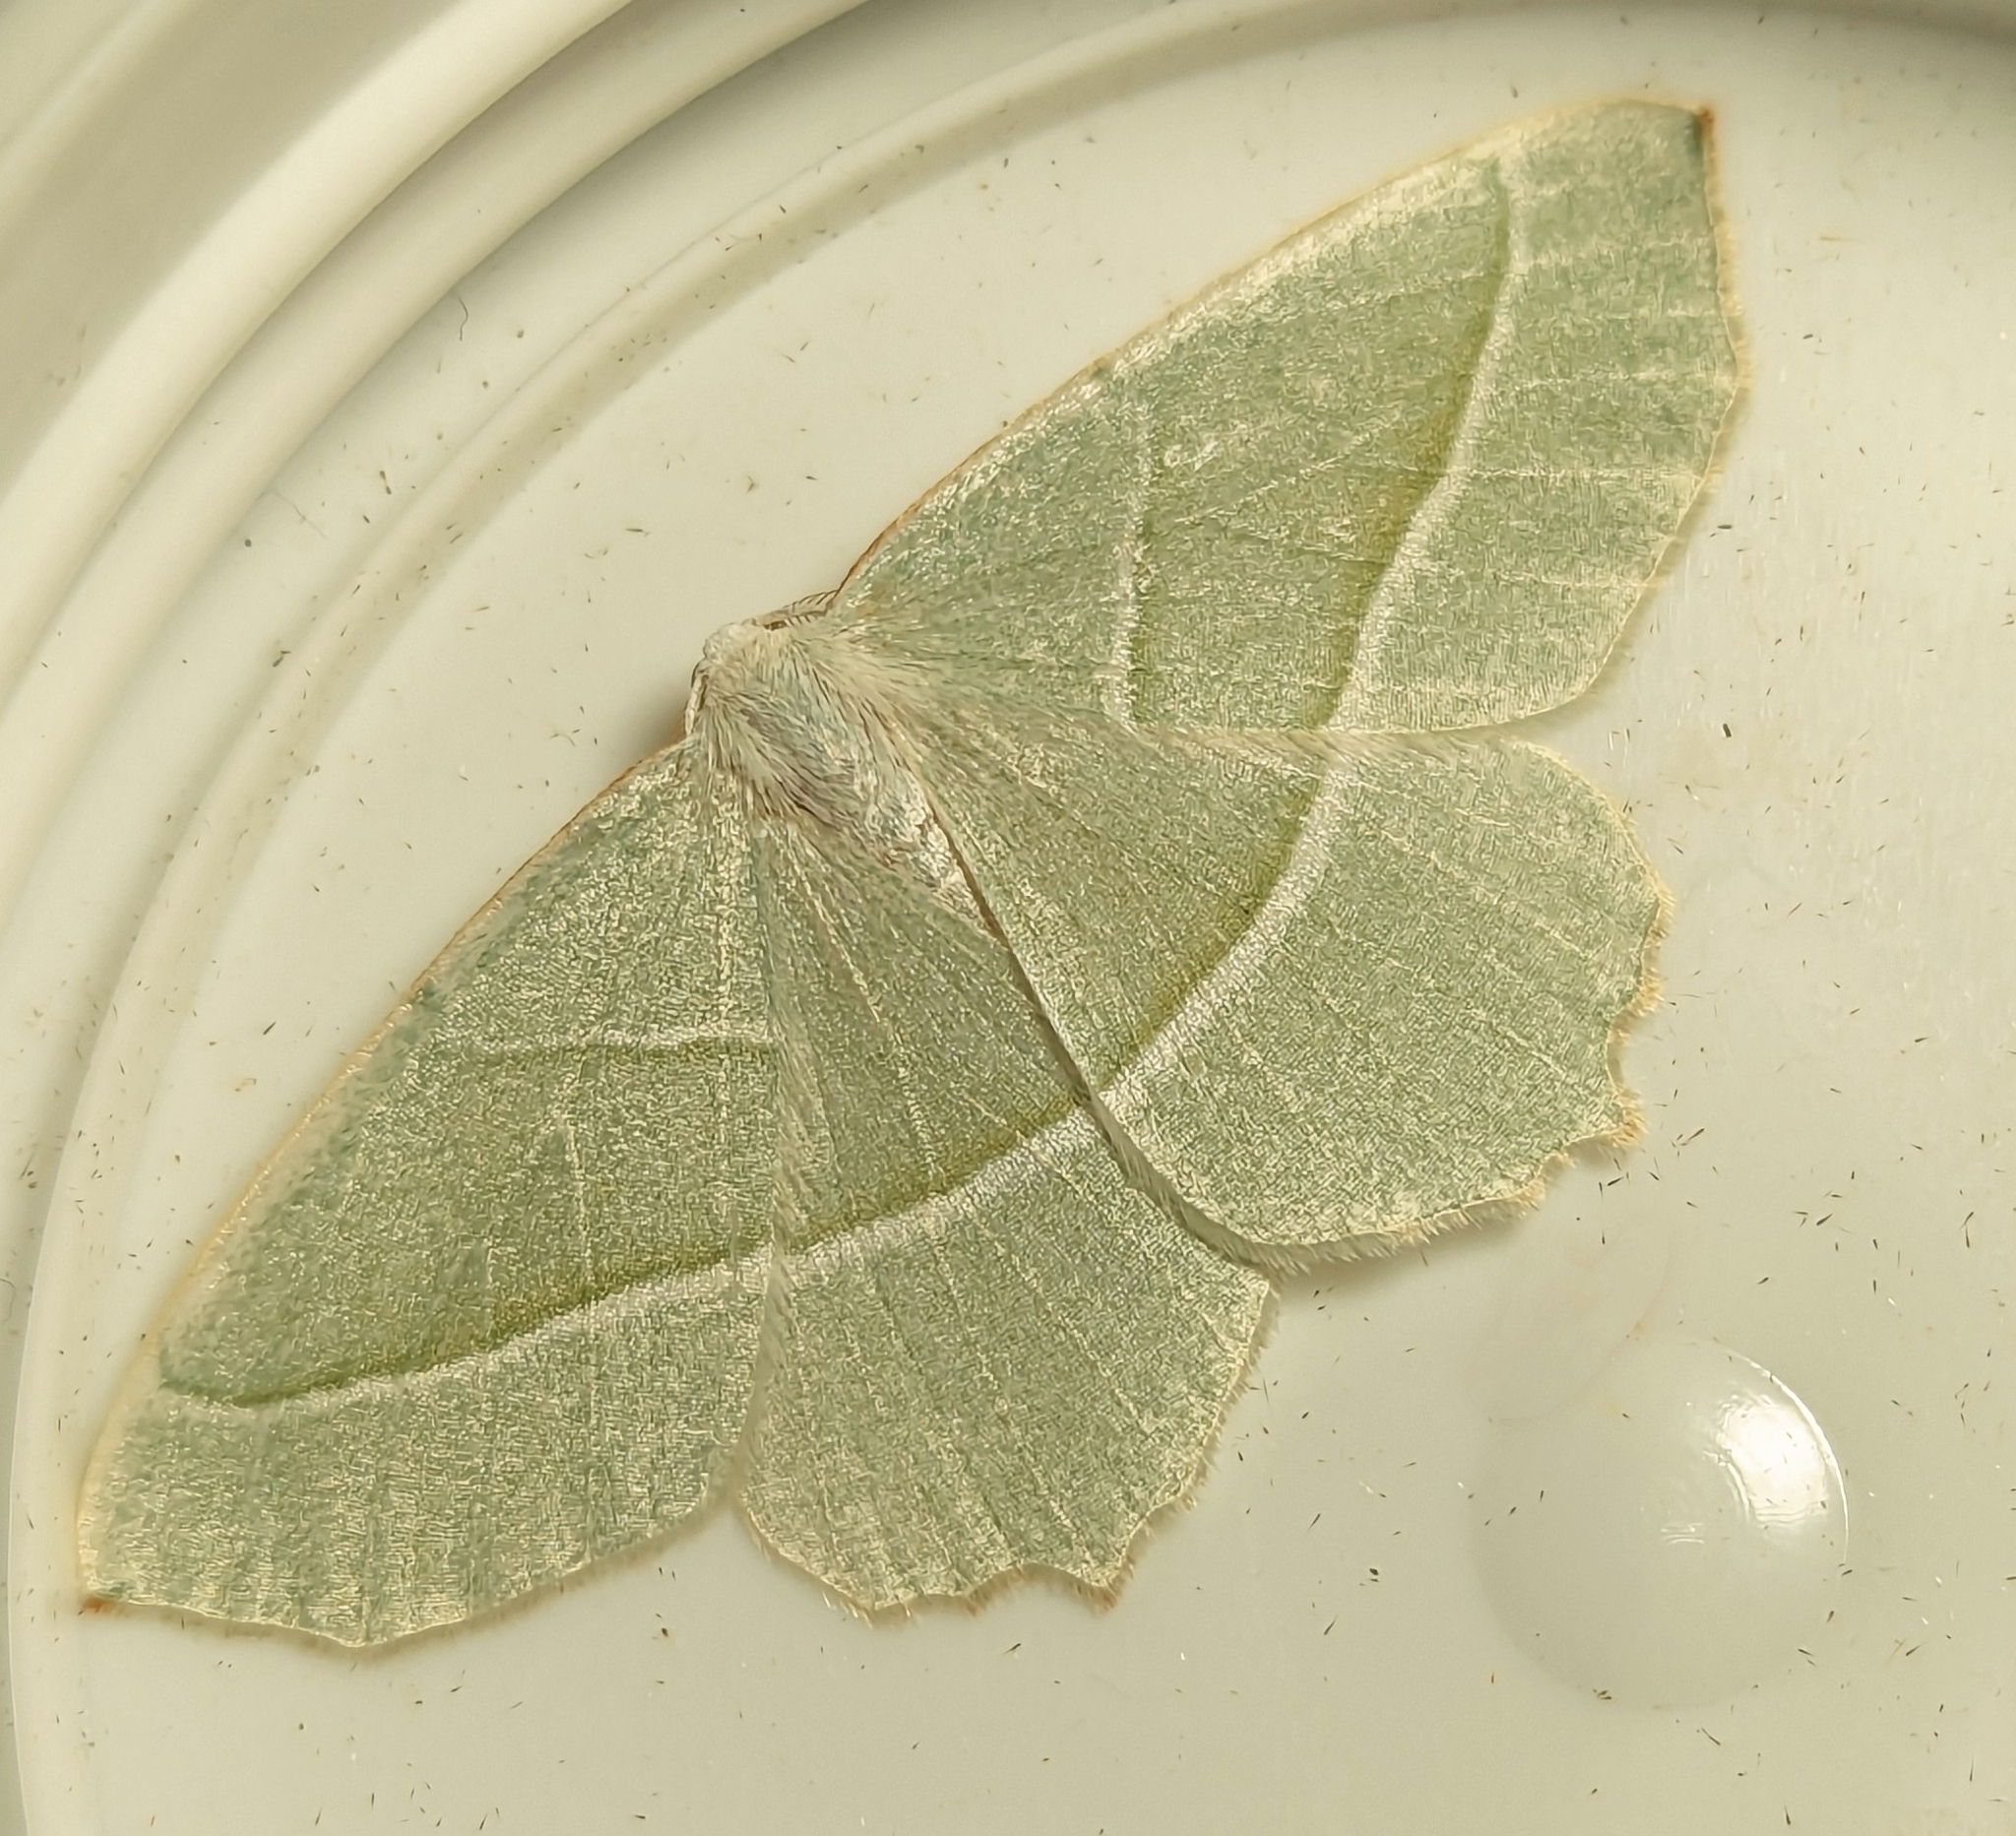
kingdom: Animalia
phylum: Arthropoda
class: Insecta
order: Lepidoptera
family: Geometridae
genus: Campaea
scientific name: Campaea margaritaria
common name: Light emerald
